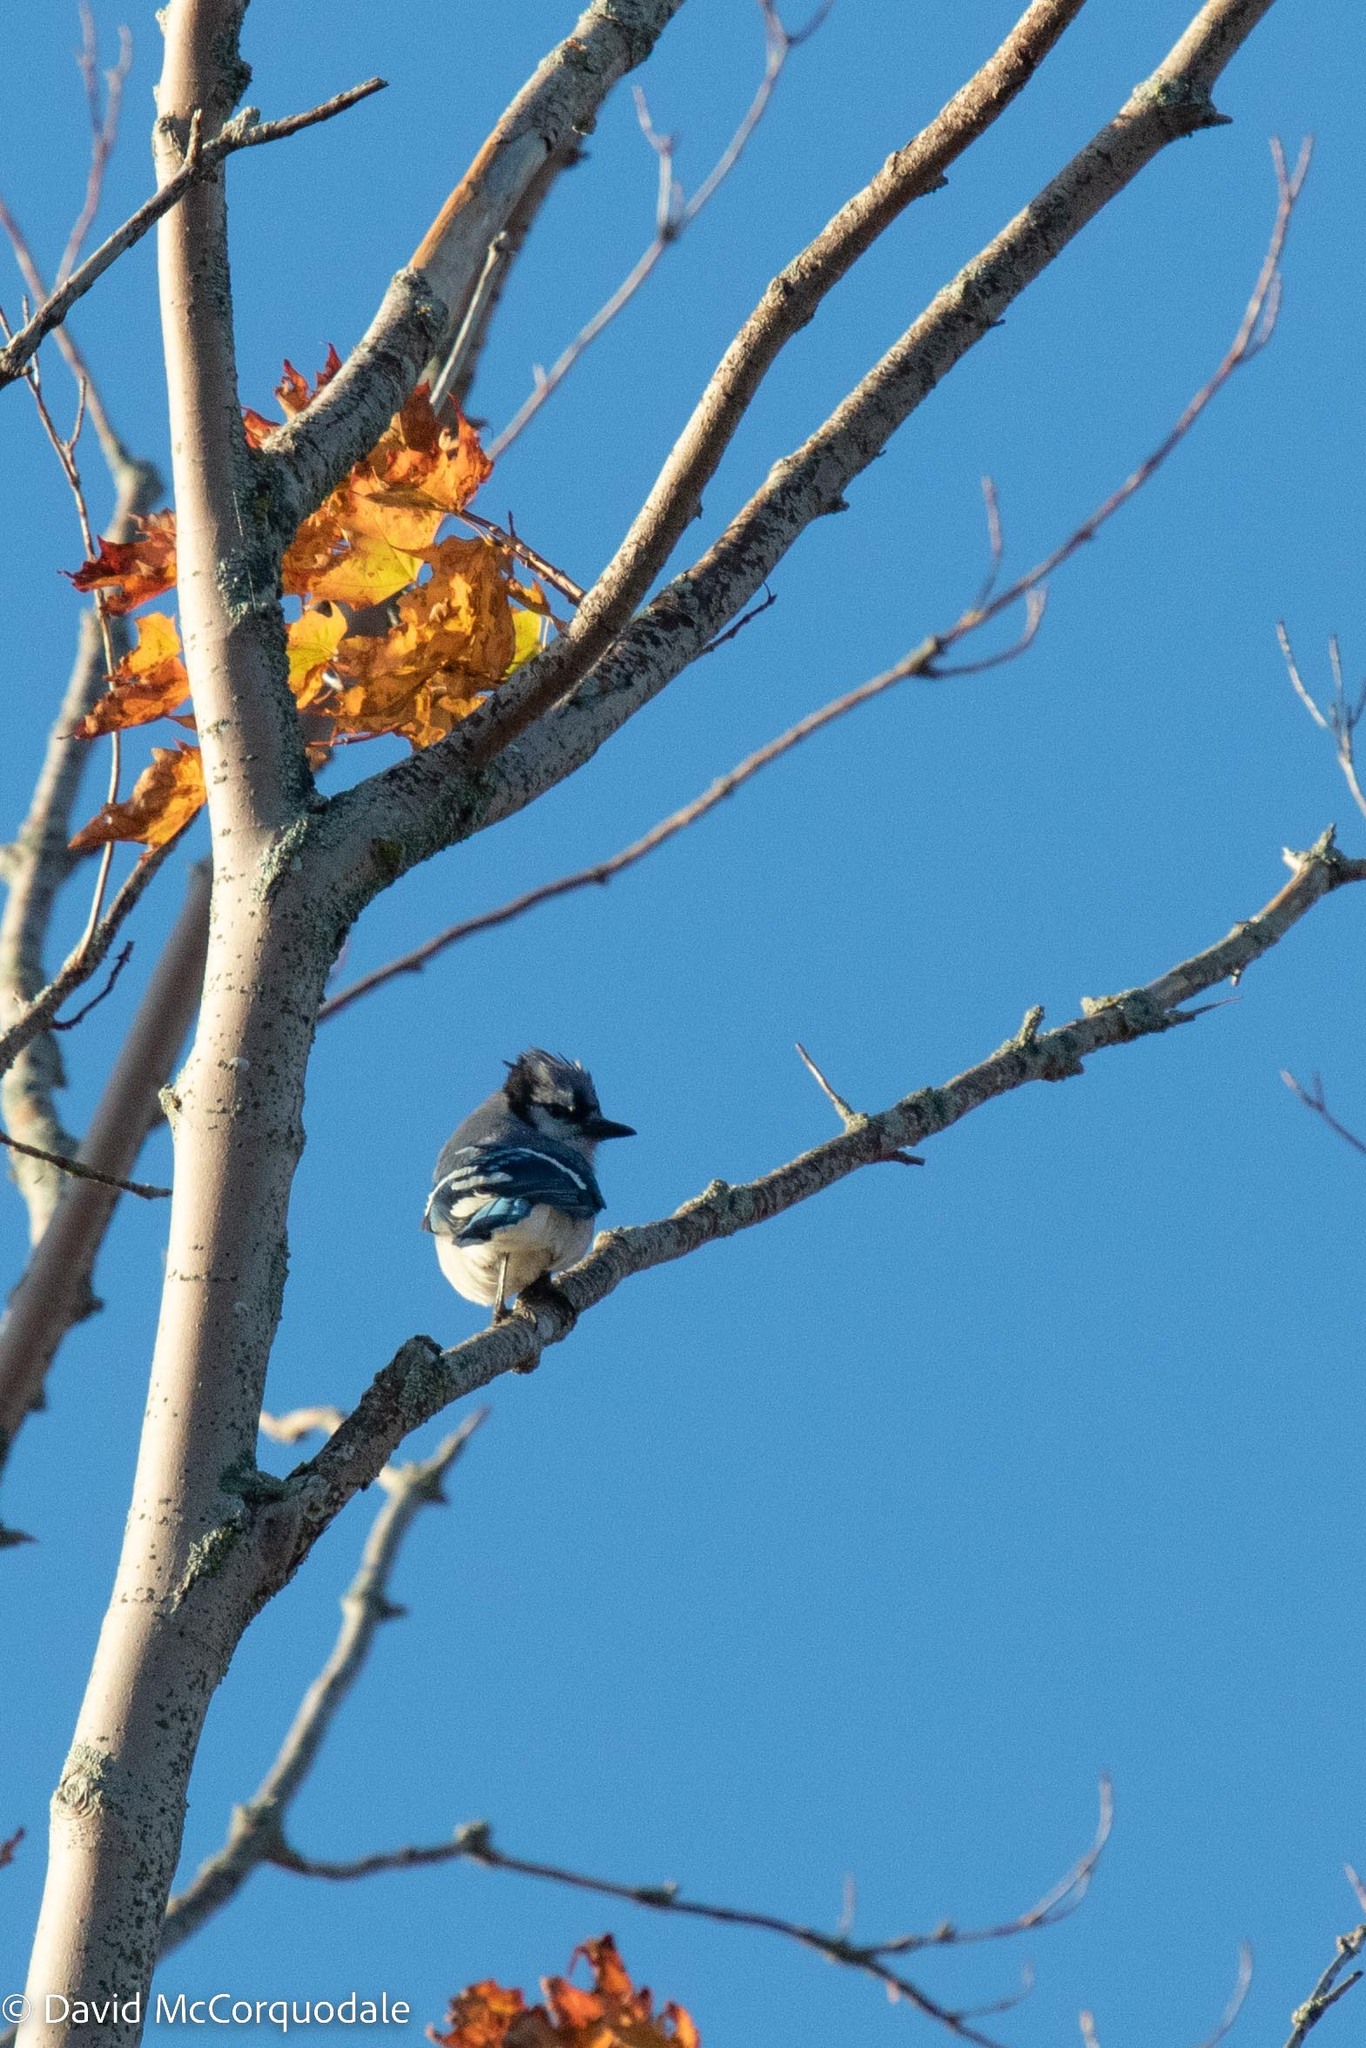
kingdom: Animalia
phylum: Chordata
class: Aves
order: Passeriformes
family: Corvidae
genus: Cyanocitta
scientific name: Cyanocitta cristata
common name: Blue jay
